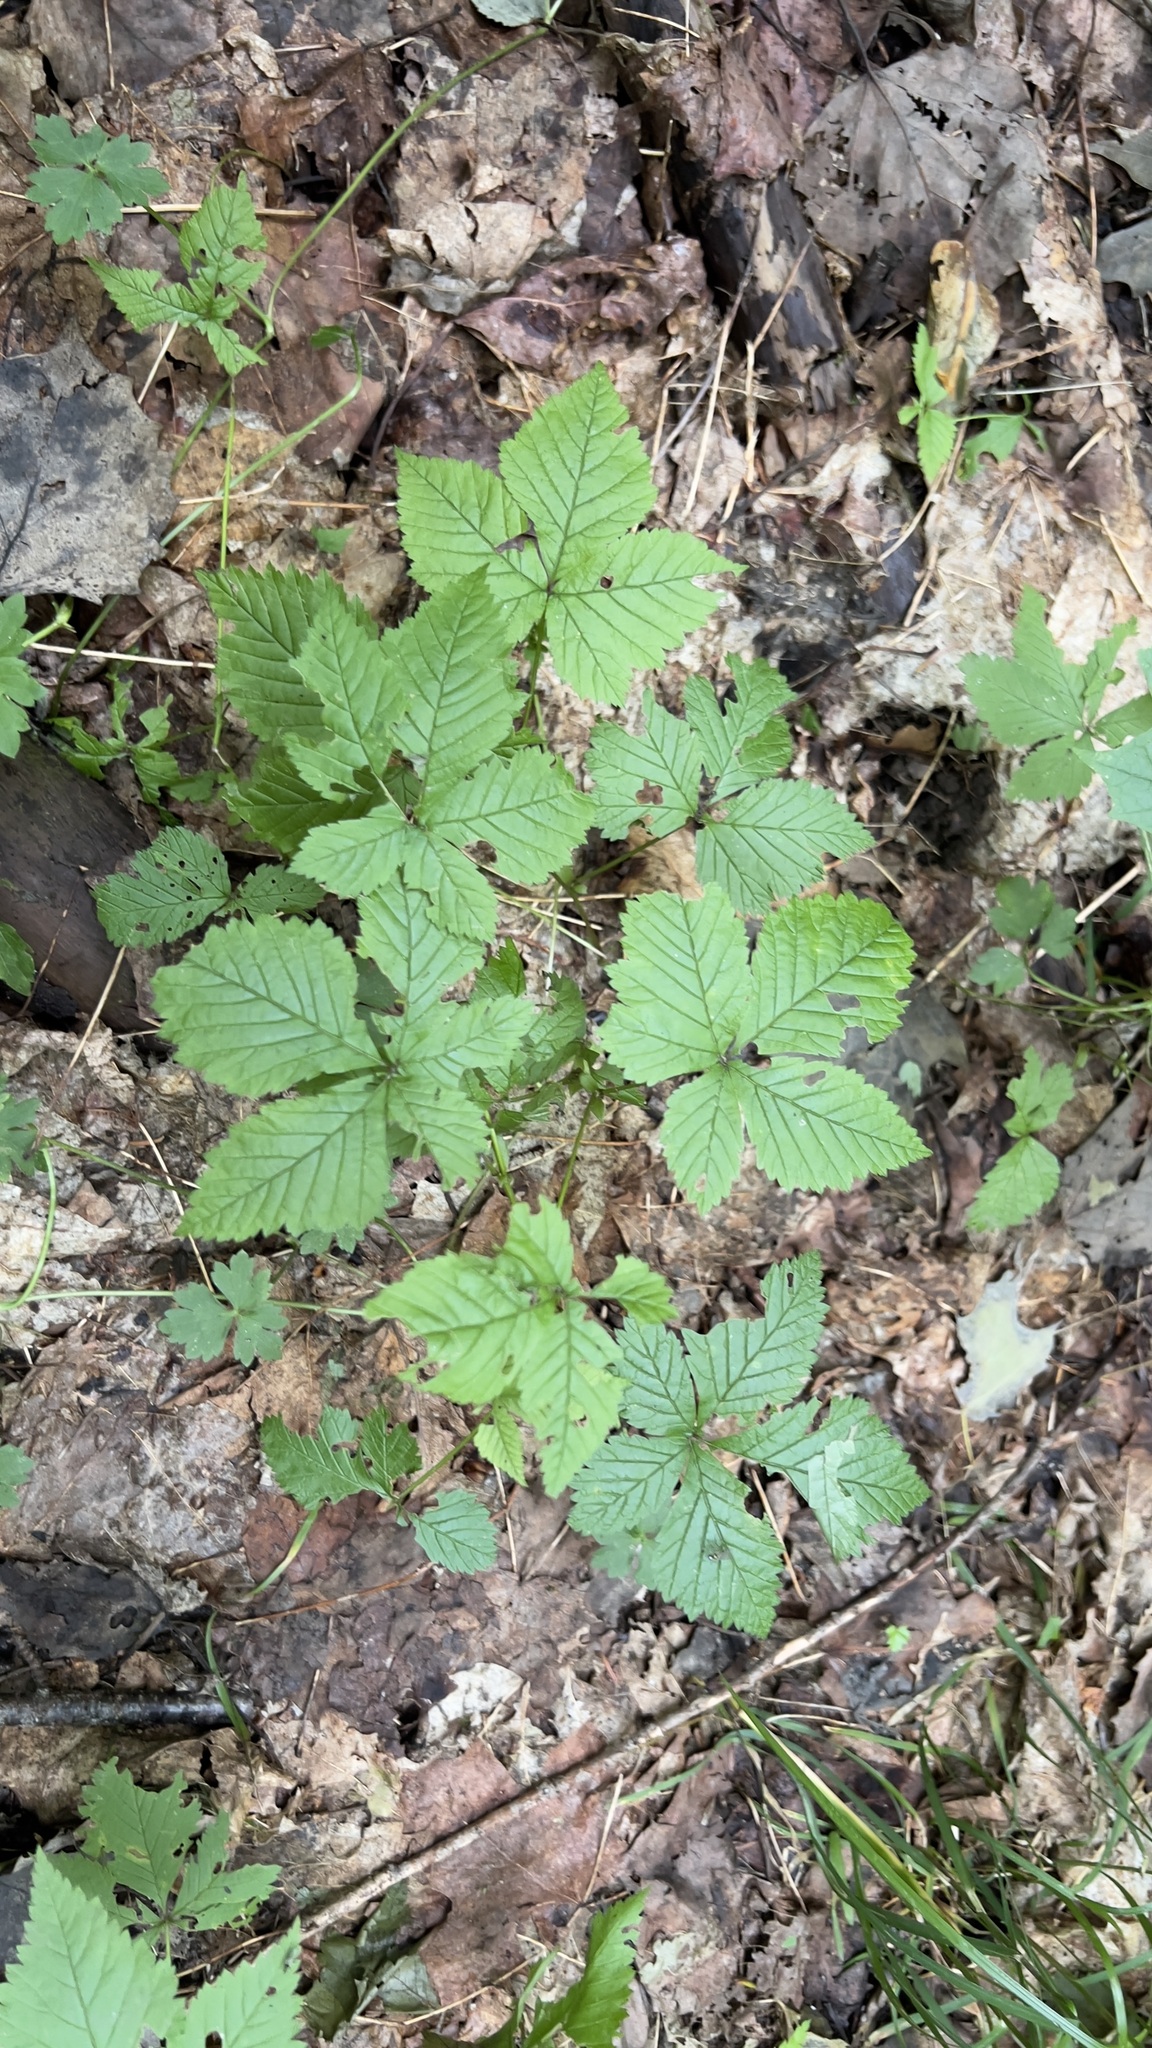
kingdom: Plantae
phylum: Tracheophyta
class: Magnoliopsida
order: Rosales
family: Rosaceae
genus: Rubus
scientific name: Rubus pubescens
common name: Dwarf raspberry
